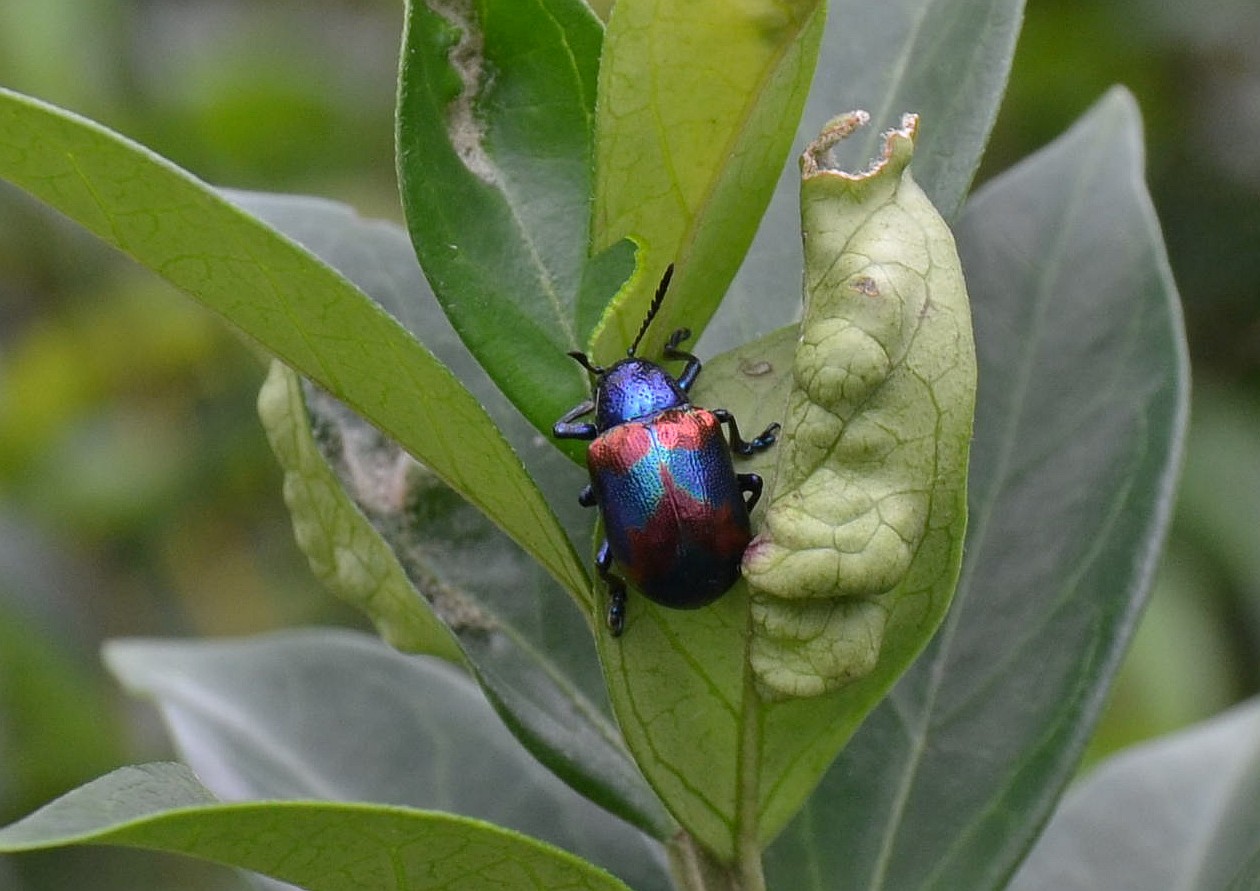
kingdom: Animalia
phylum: Arthropoda
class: Insecta
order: Coleoptera
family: Chrysomelidae
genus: Platycorynus
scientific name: Platycorynus undatus
